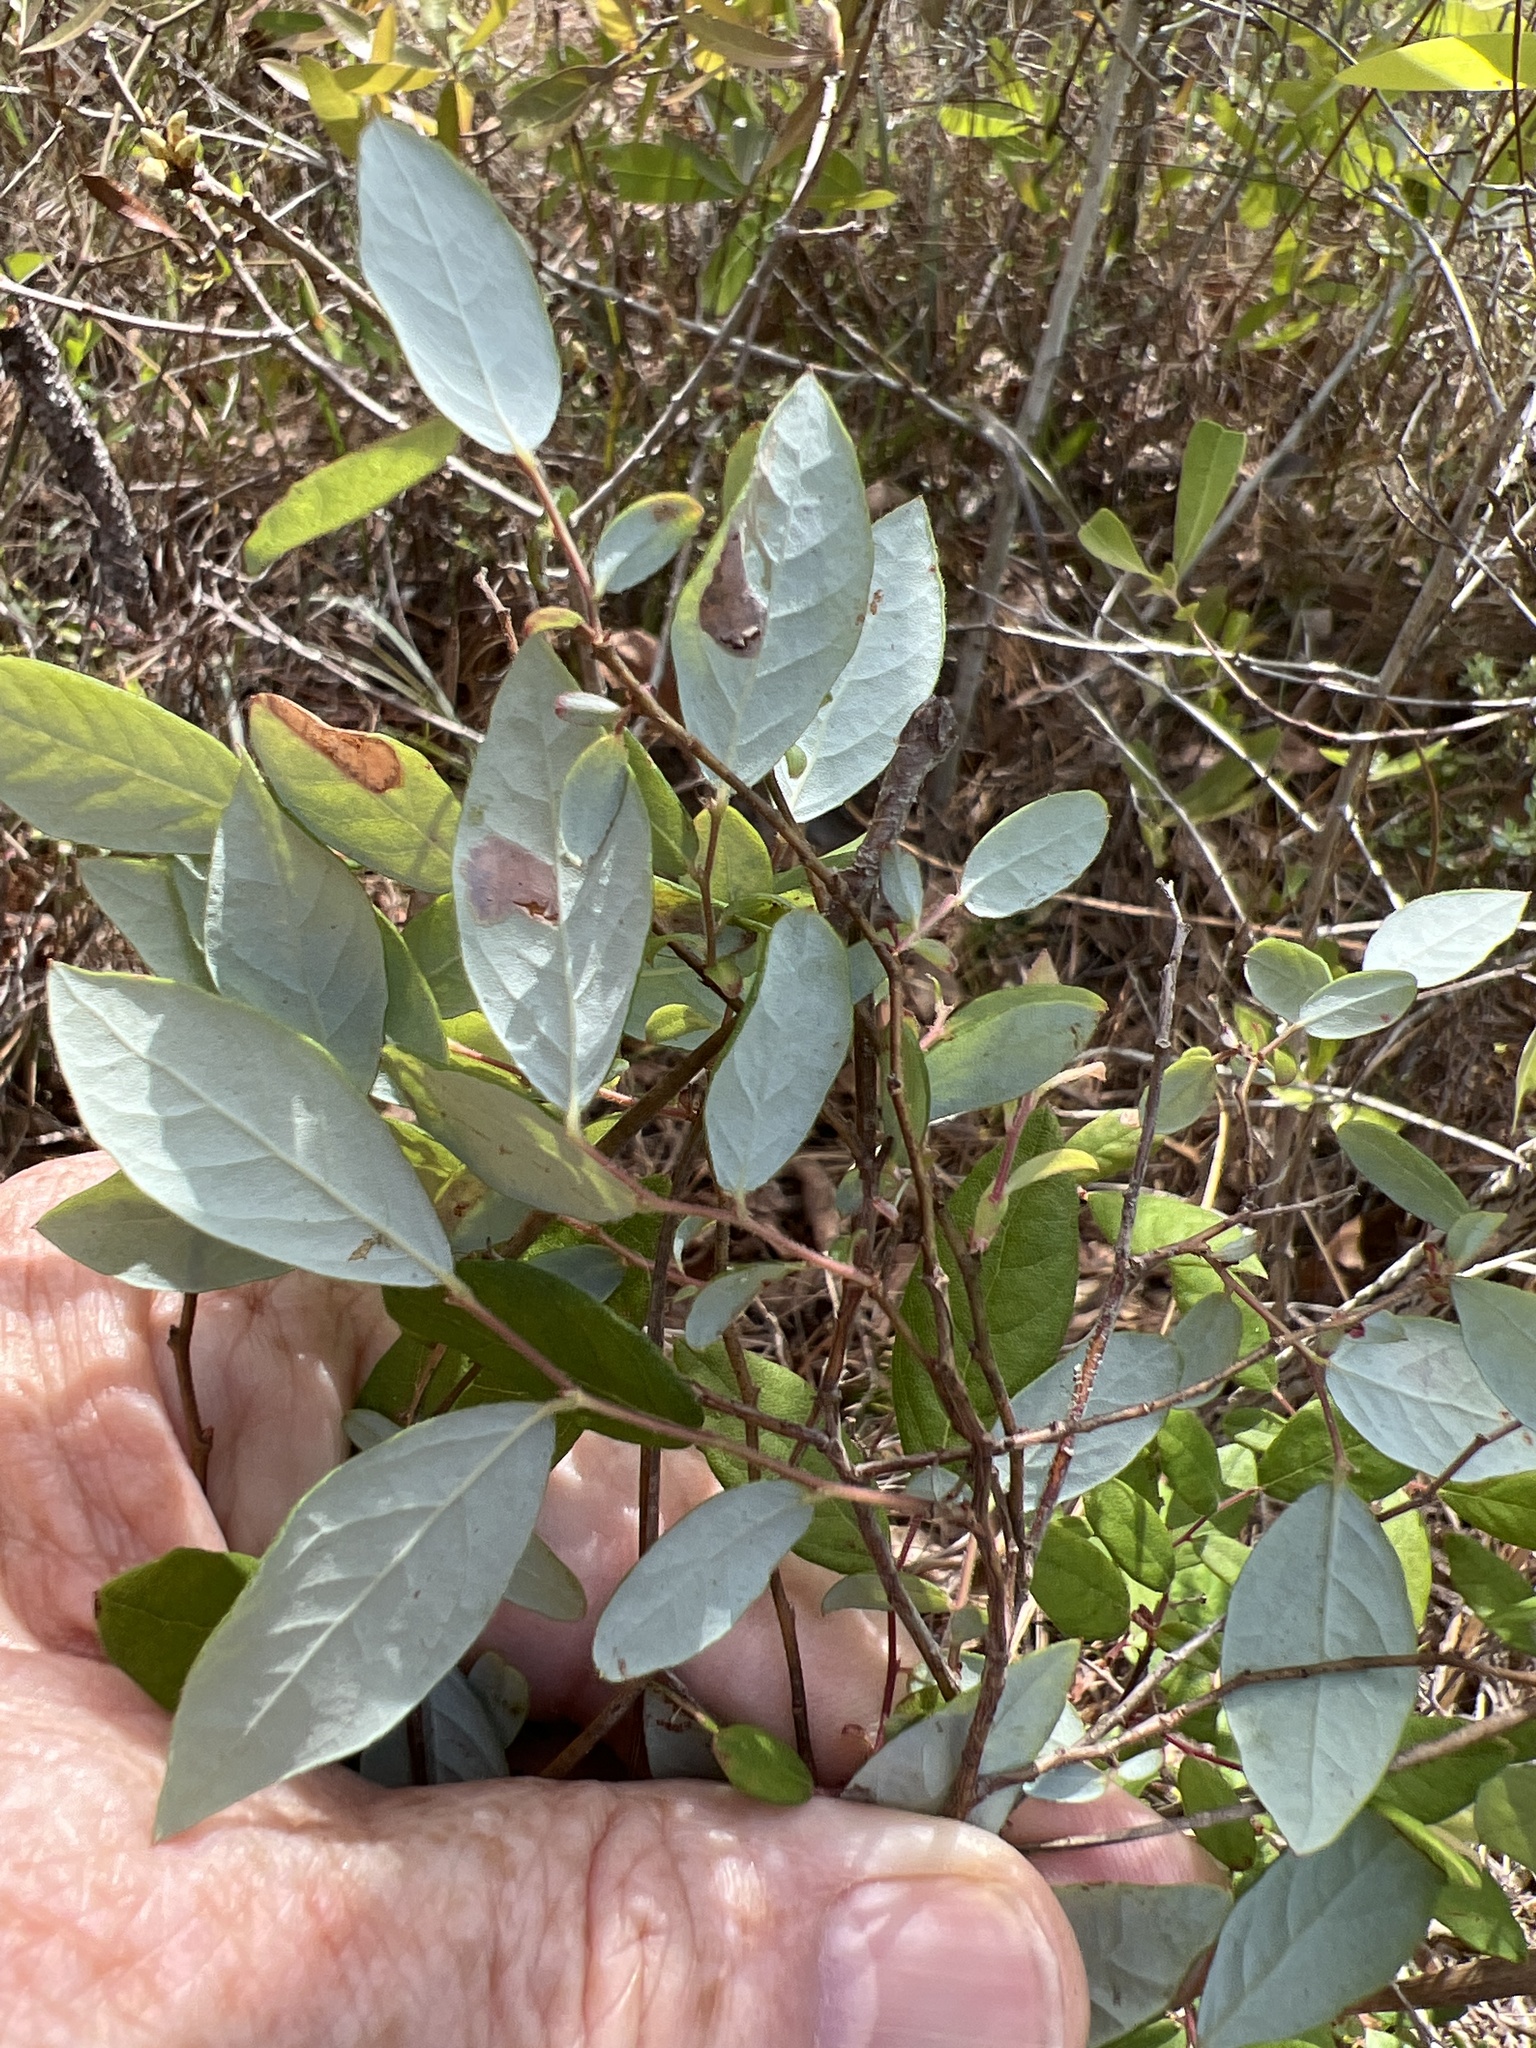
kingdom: Plantae
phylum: Tracheophyta
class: Magnoliopsida
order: Ericales
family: Ericaceae
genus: Vaccinium
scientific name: Vaccinium stamineum
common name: Deerberry
